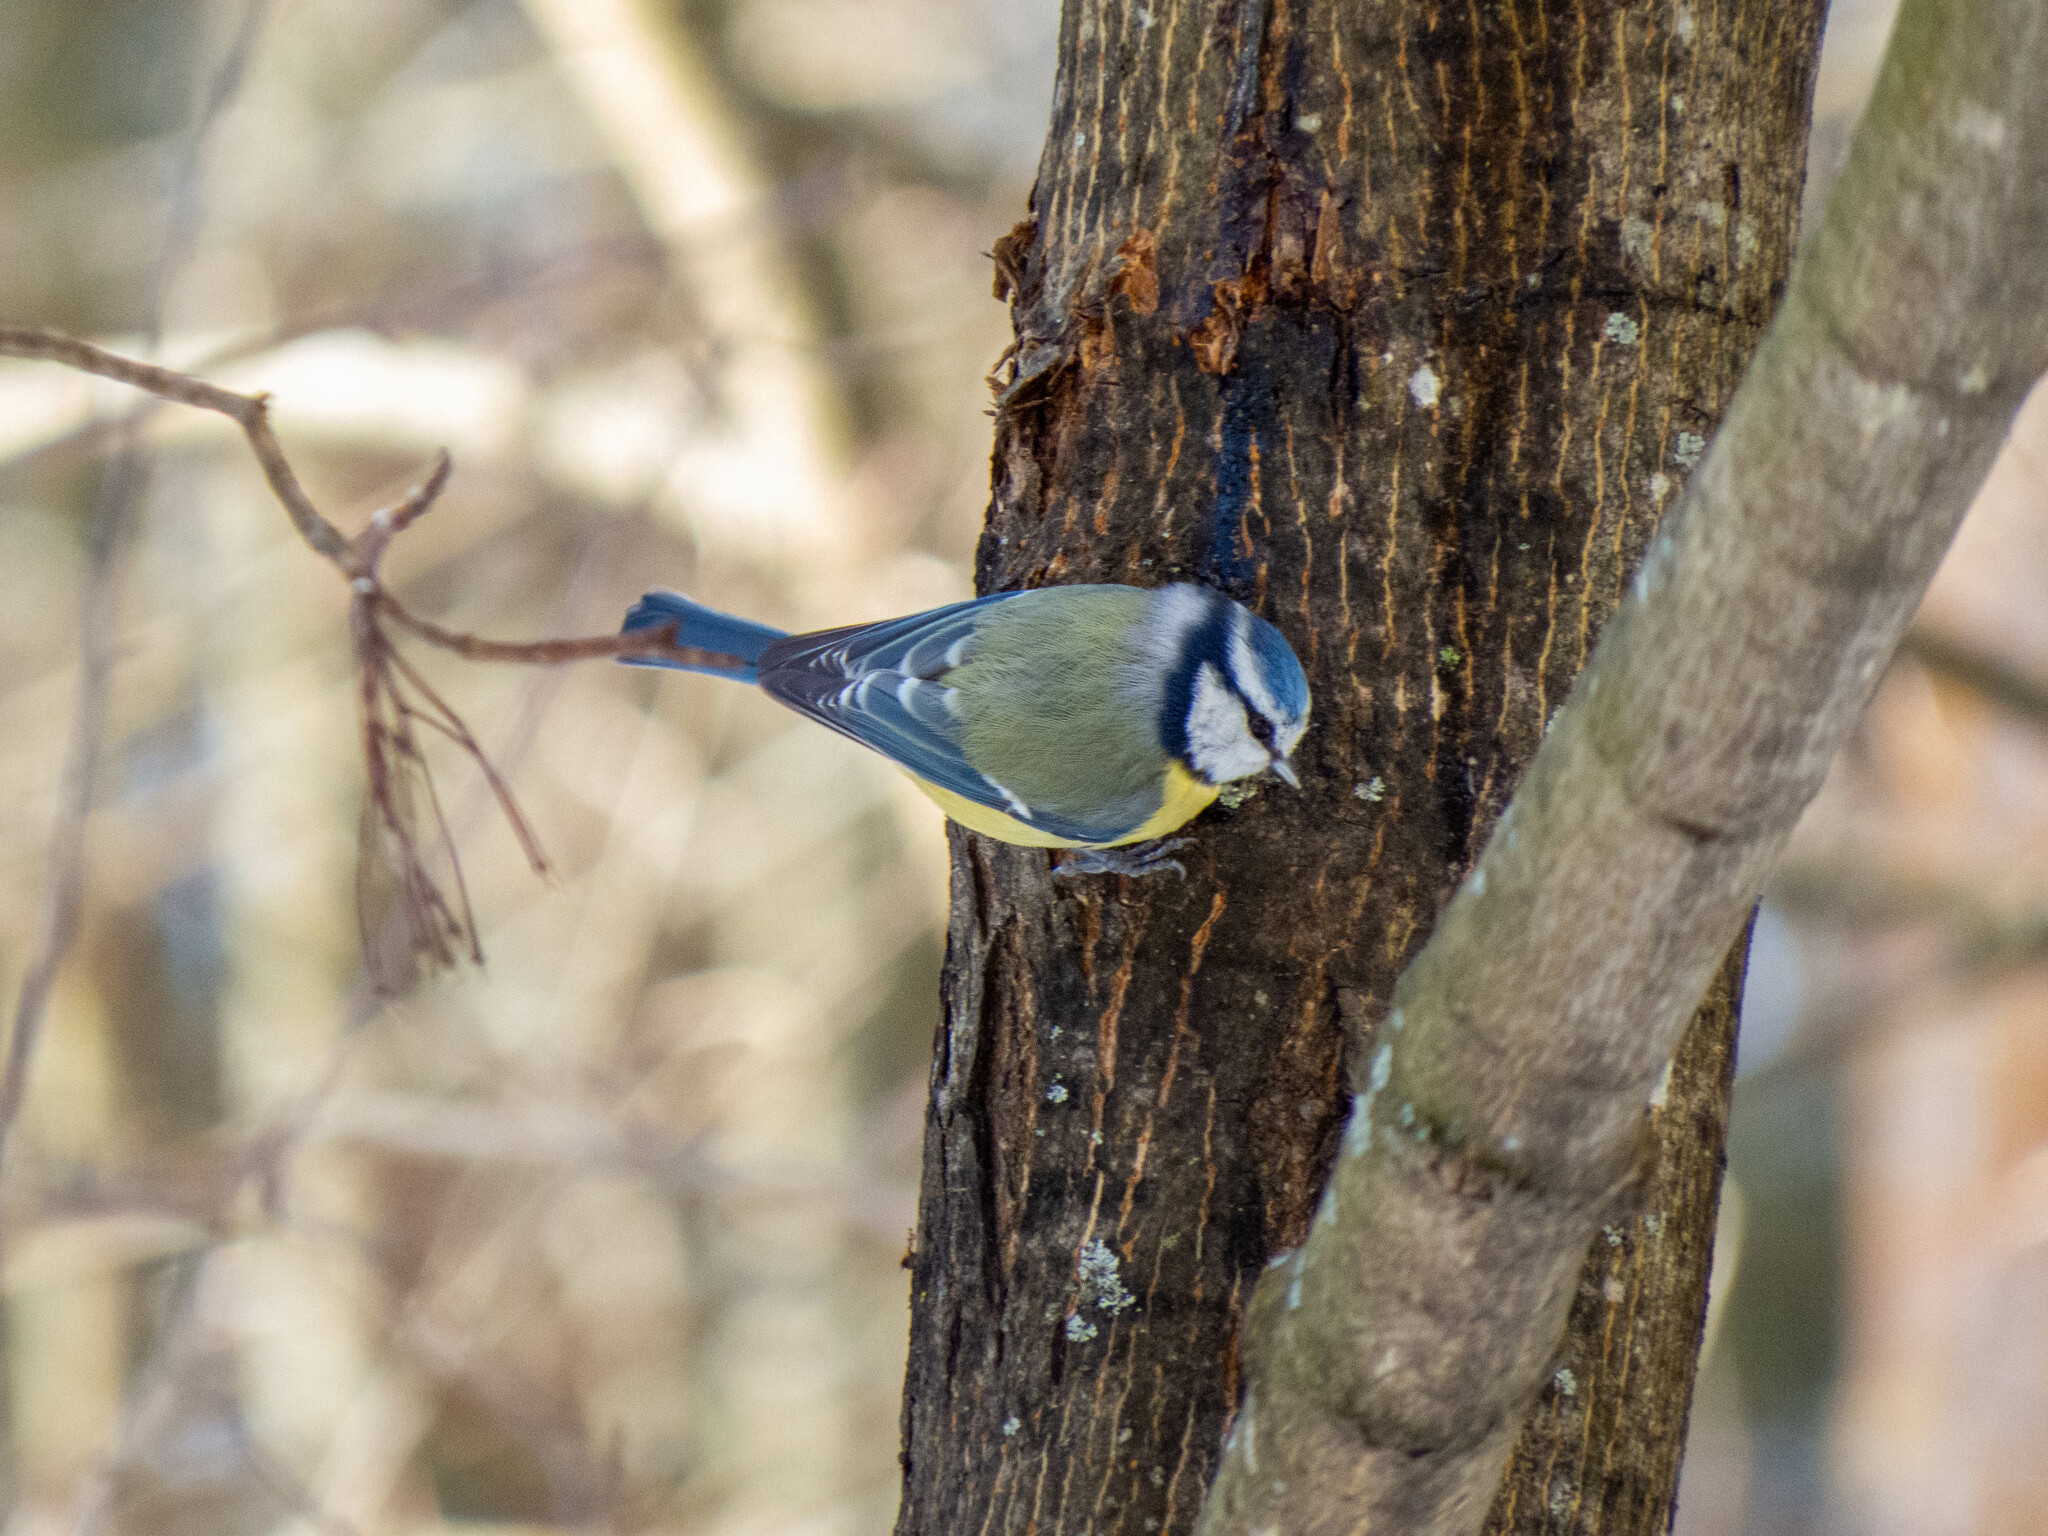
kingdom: Animalia
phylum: Chordata
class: Aves
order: Passeriformes
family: Paridae
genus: Cyanistes
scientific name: Cyanistes caeruleus
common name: Eurasian blue tit
